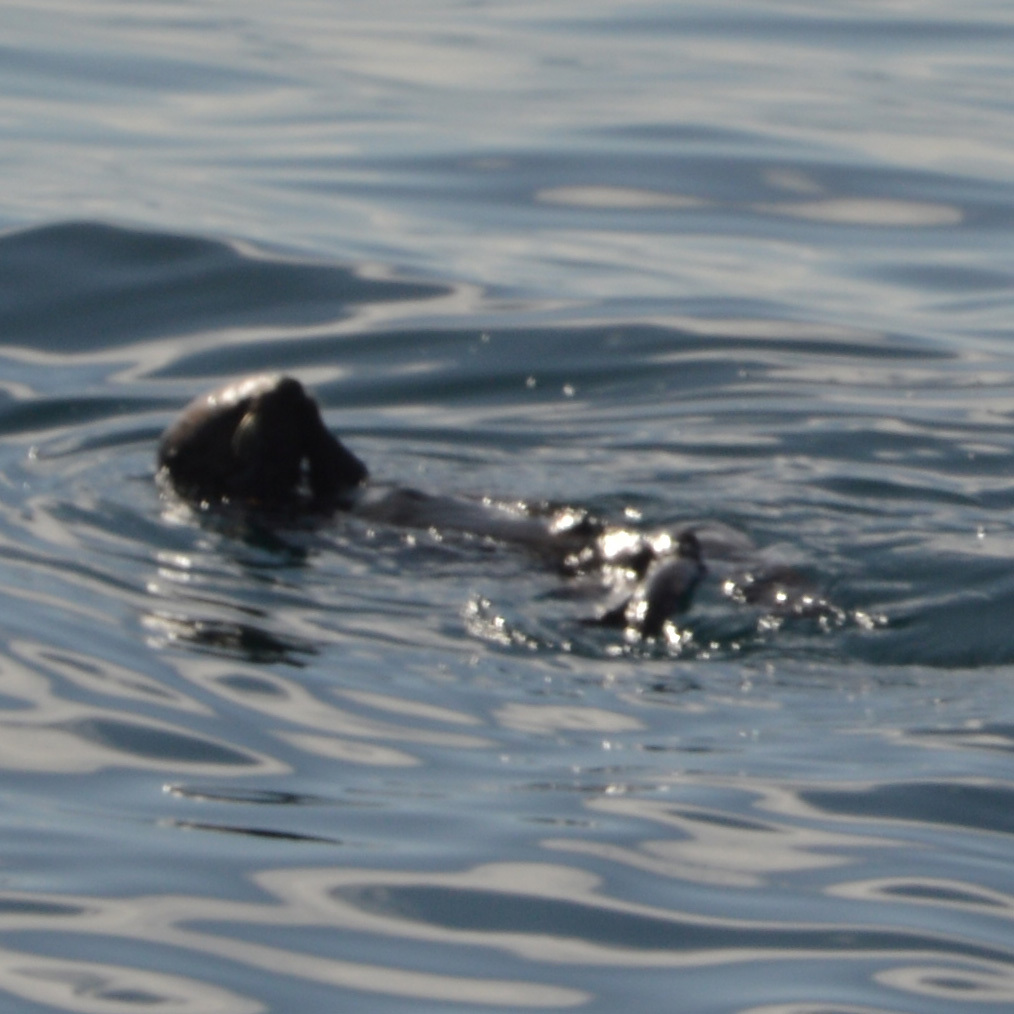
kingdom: Animalia
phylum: Chordata
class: Mammalia
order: Carnivora
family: Mustelidae
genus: Enhydra
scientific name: Enhydra lutris
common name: Sea otter
